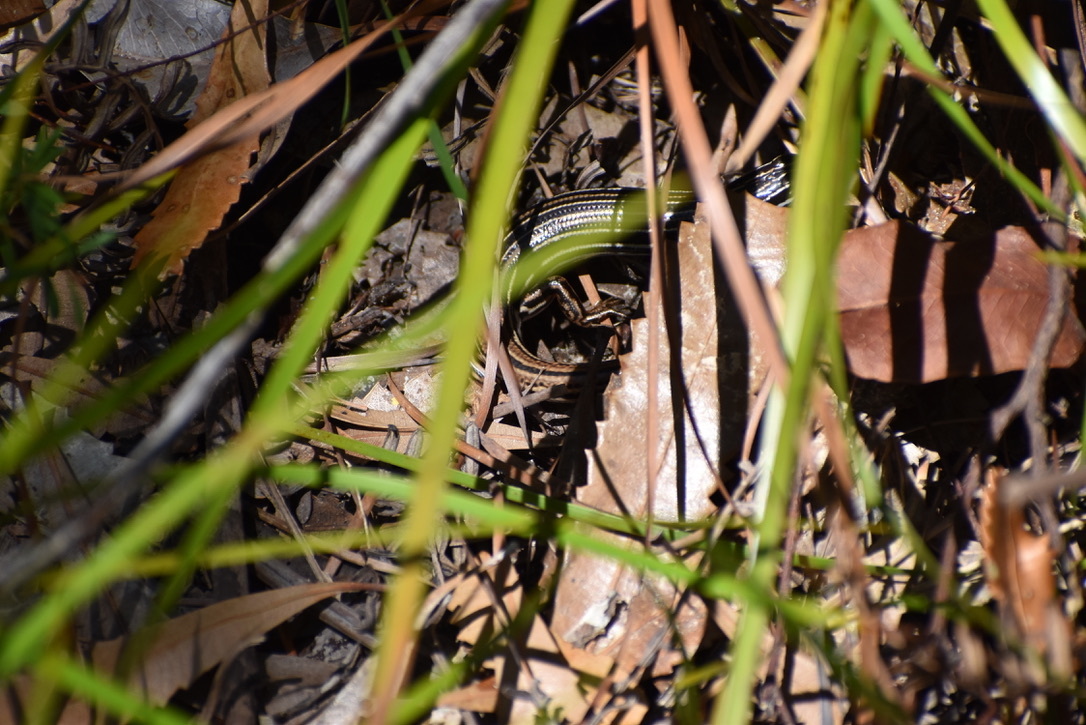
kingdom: Animalia
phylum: Chordata
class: Squamata
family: Scincidae
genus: Ctenotus
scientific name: Ctenotus taeniolatus
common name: Copper-tailed skink
